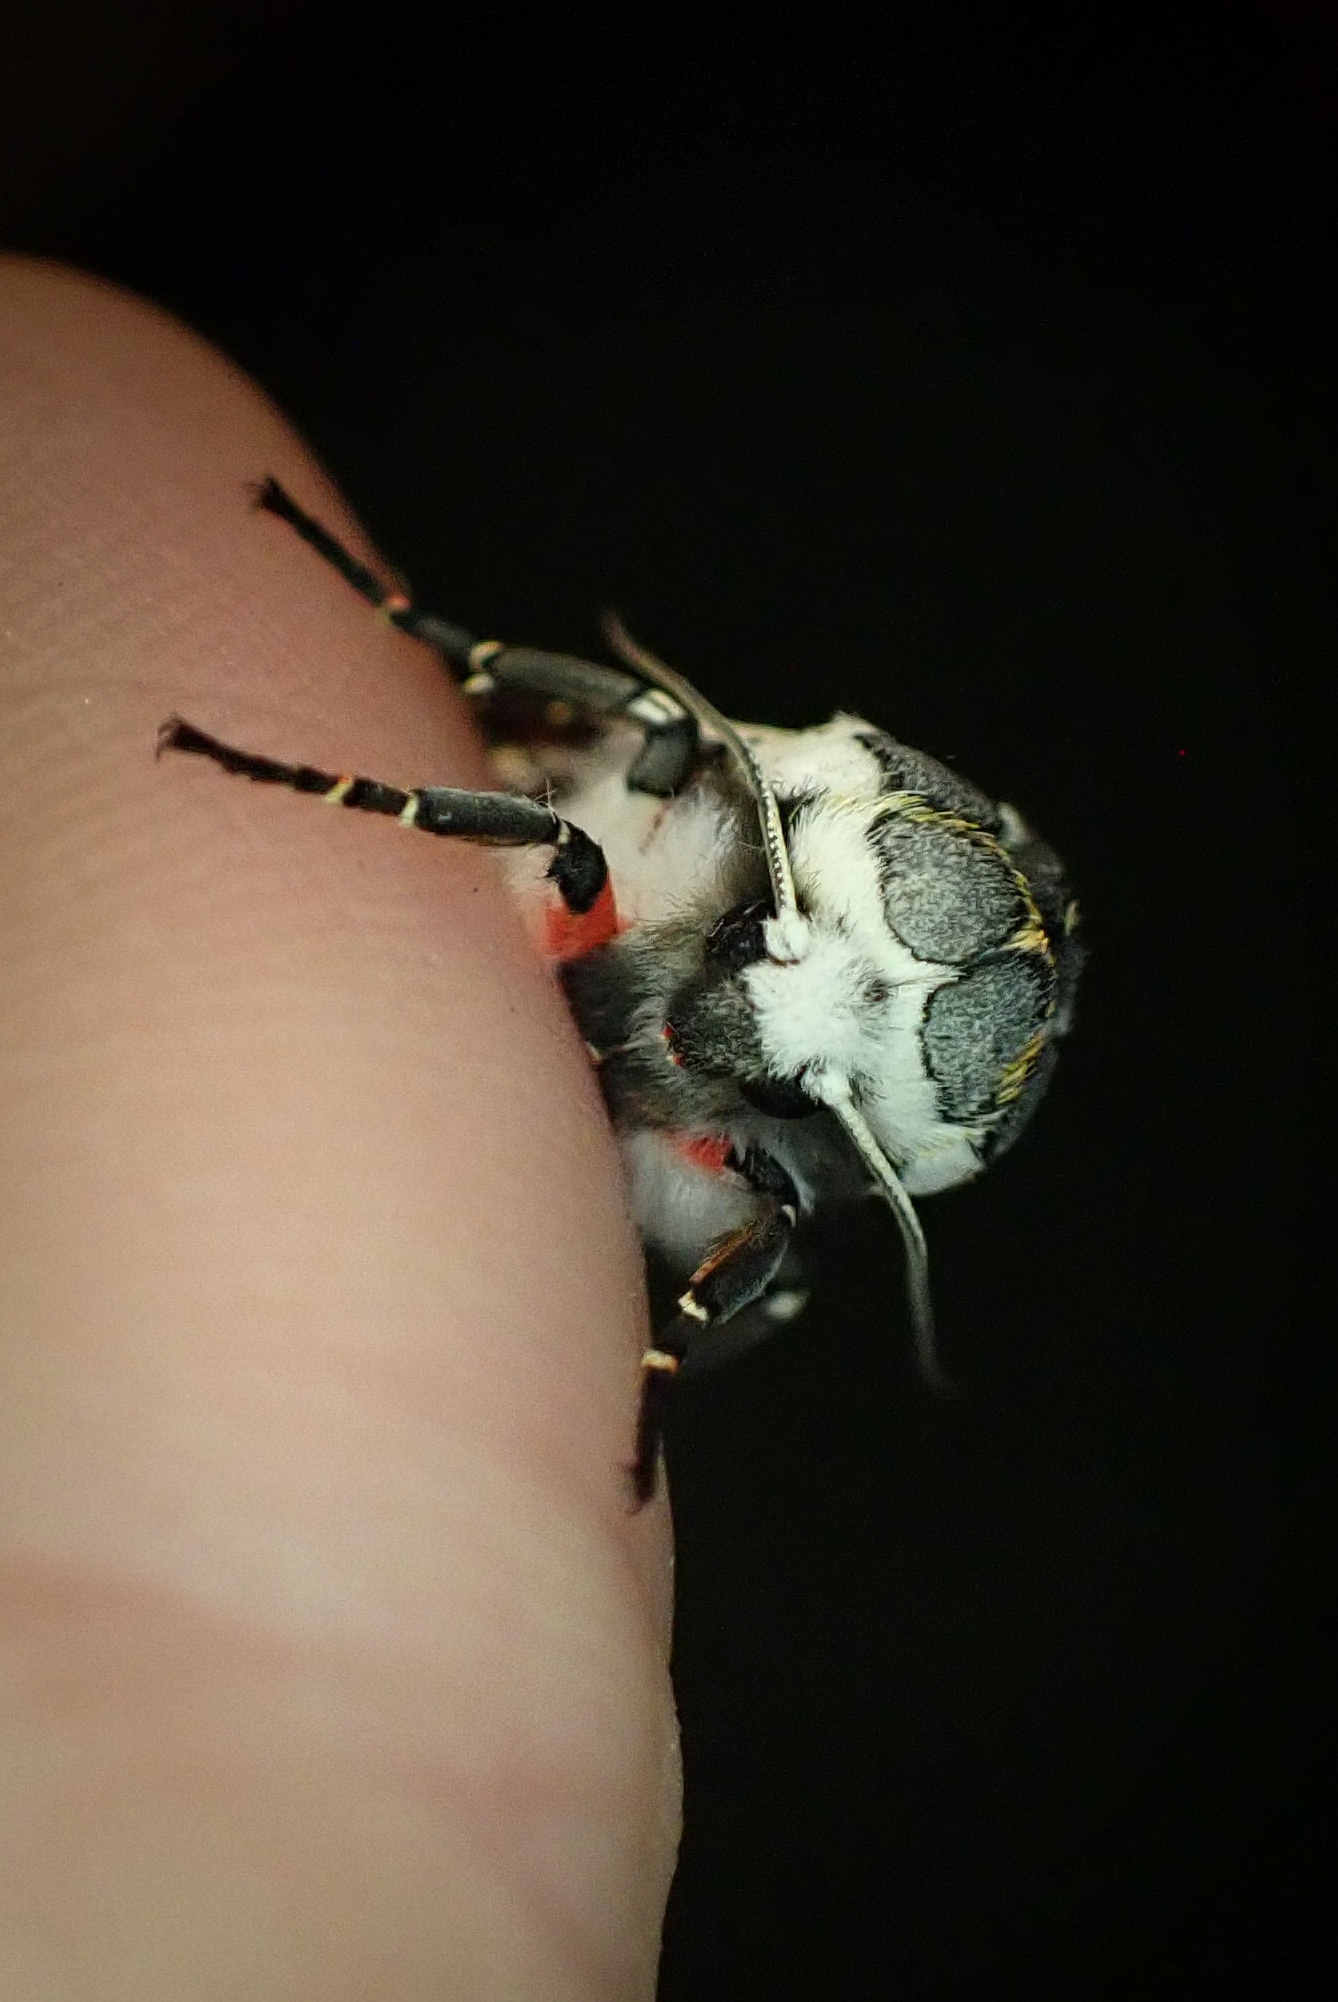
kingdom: Animalia
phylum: Arthropoda
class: Insecta
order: Lepidoptera
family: Erebidae
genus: Arachnis
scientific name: Arachnis picta
